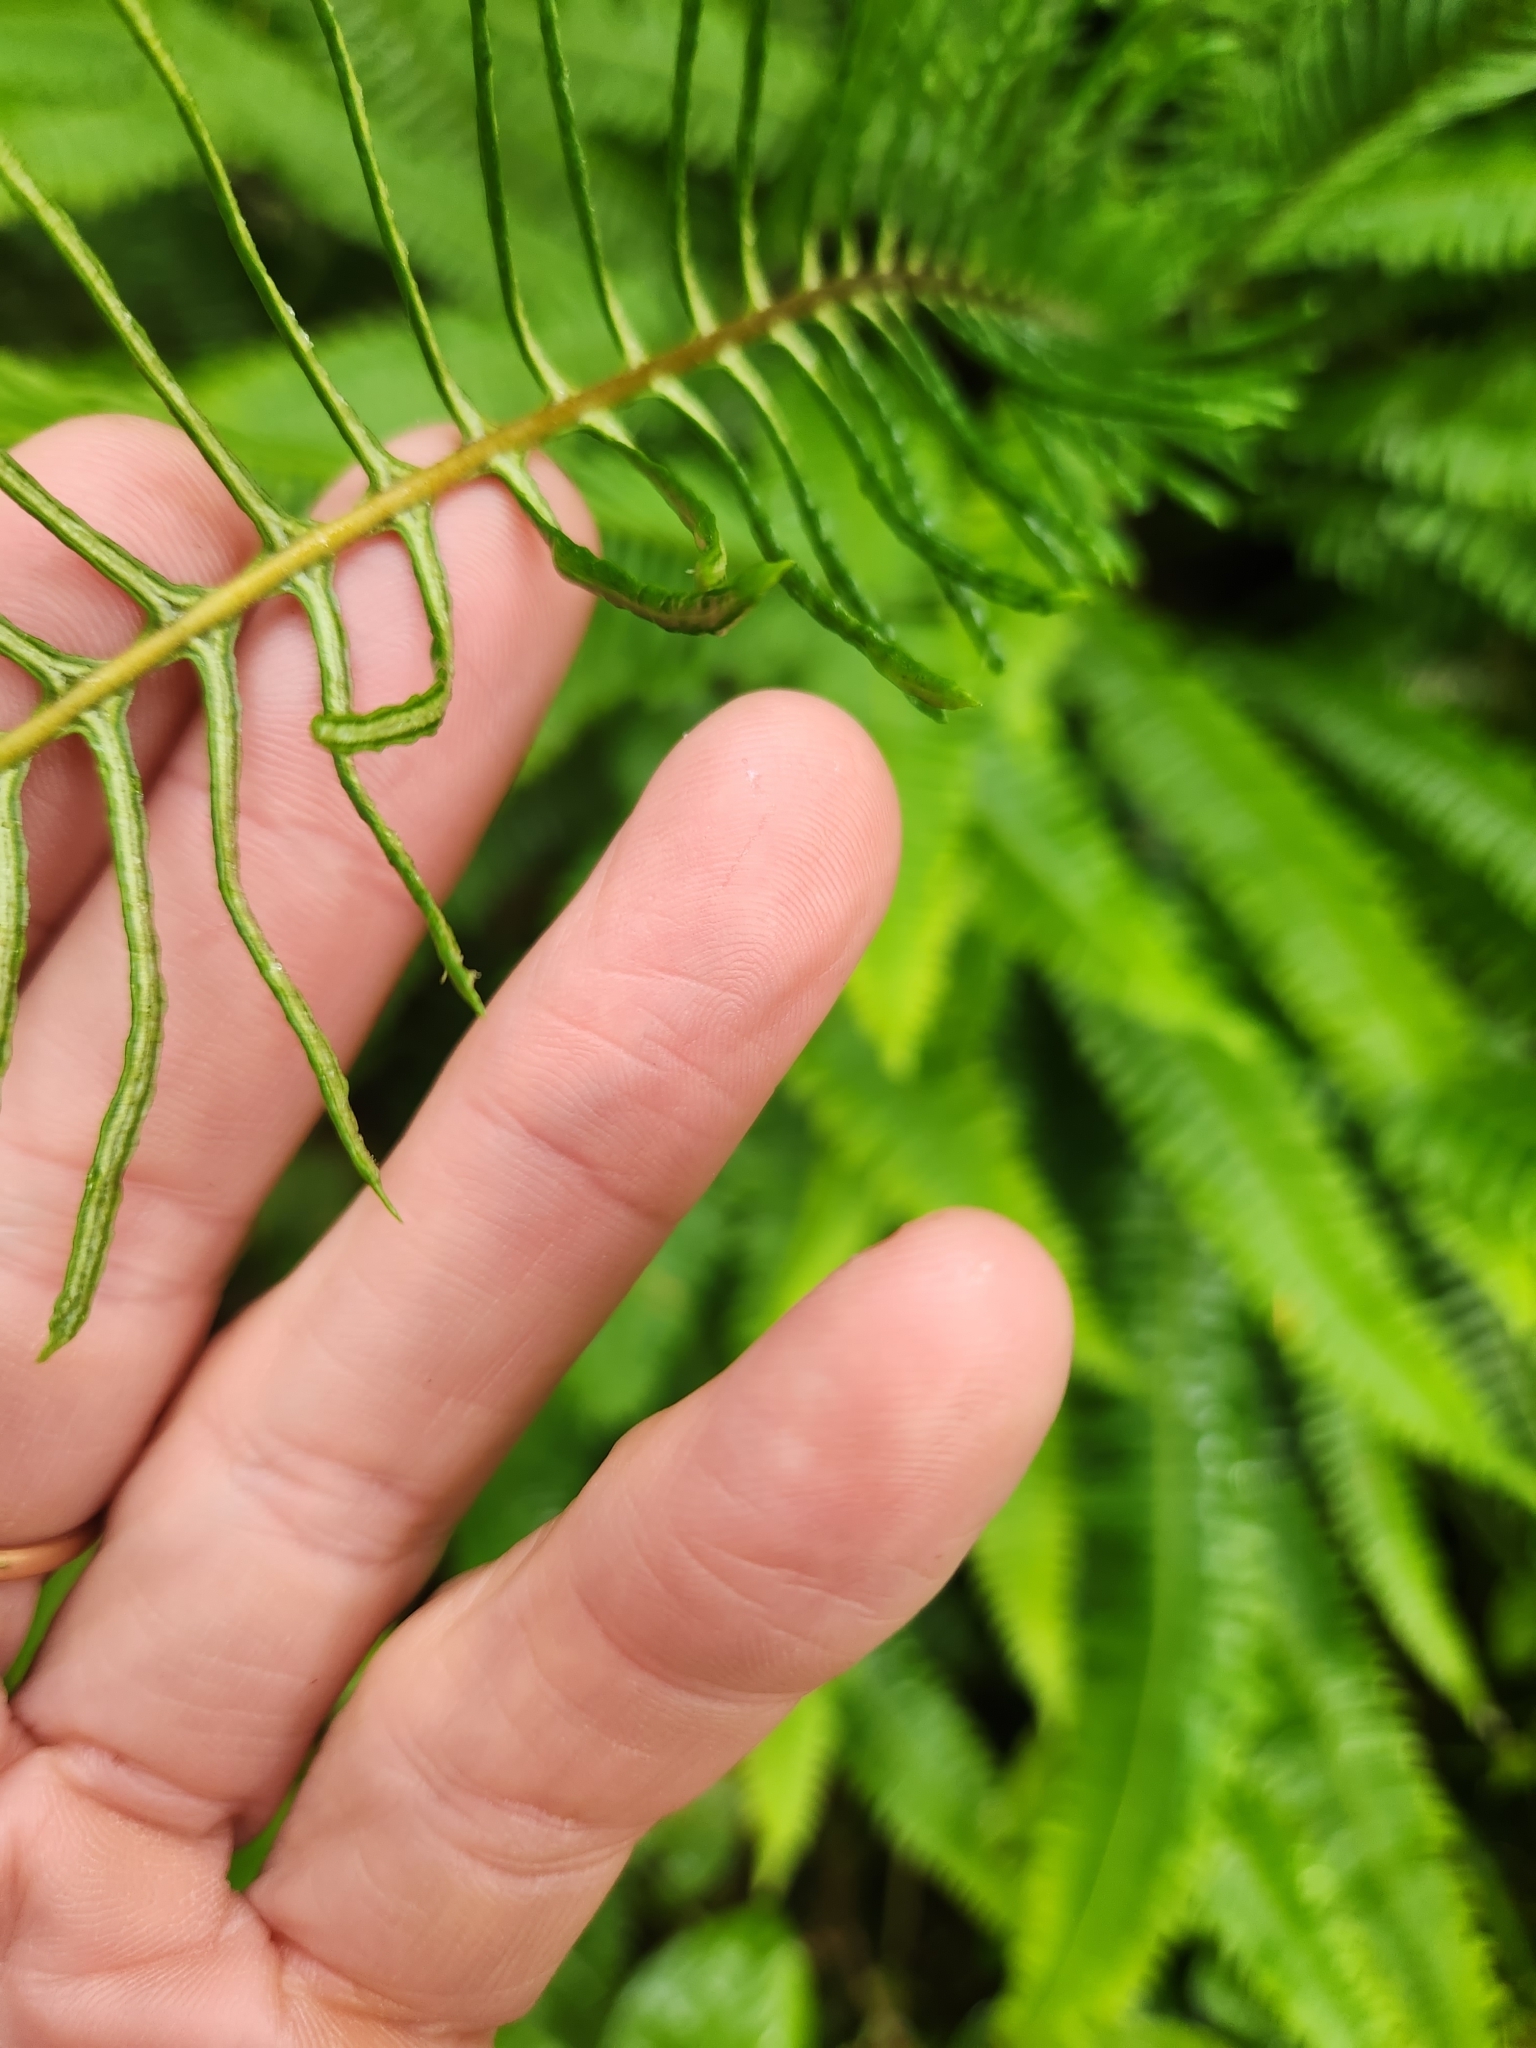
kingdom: Plantae
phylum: Tracheophyta
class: Polypodiopsida
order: Polypodiales
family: Blechnaceae
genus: Struthiopteris
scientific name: Struthiopteris spicant
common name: Deer fern
